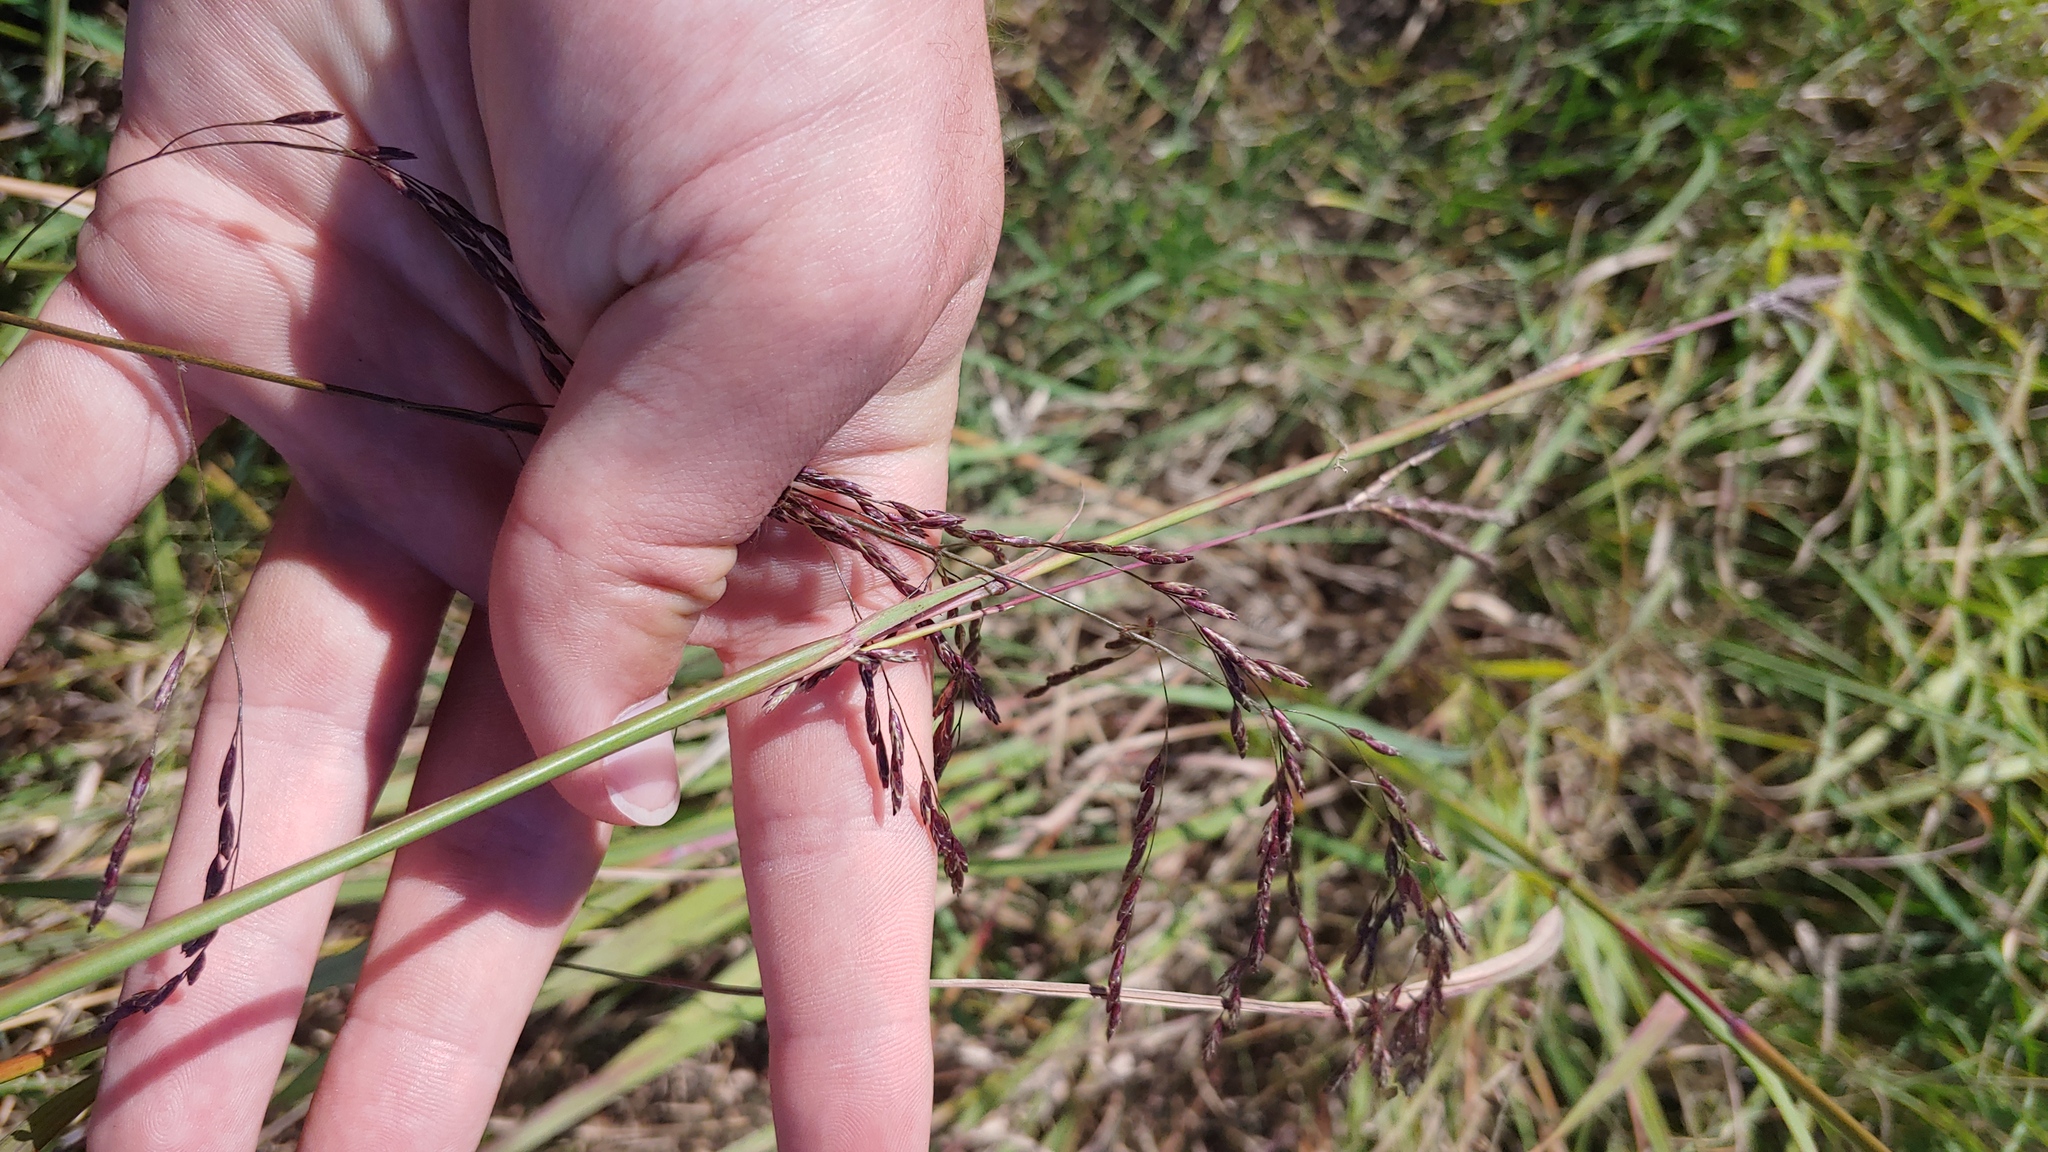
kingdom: Plantae
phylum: Tracheophyta
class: Liliopsida
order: Poales
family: Poaceae
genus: Tridens
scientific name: Tridens flavus
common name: Purpletop
